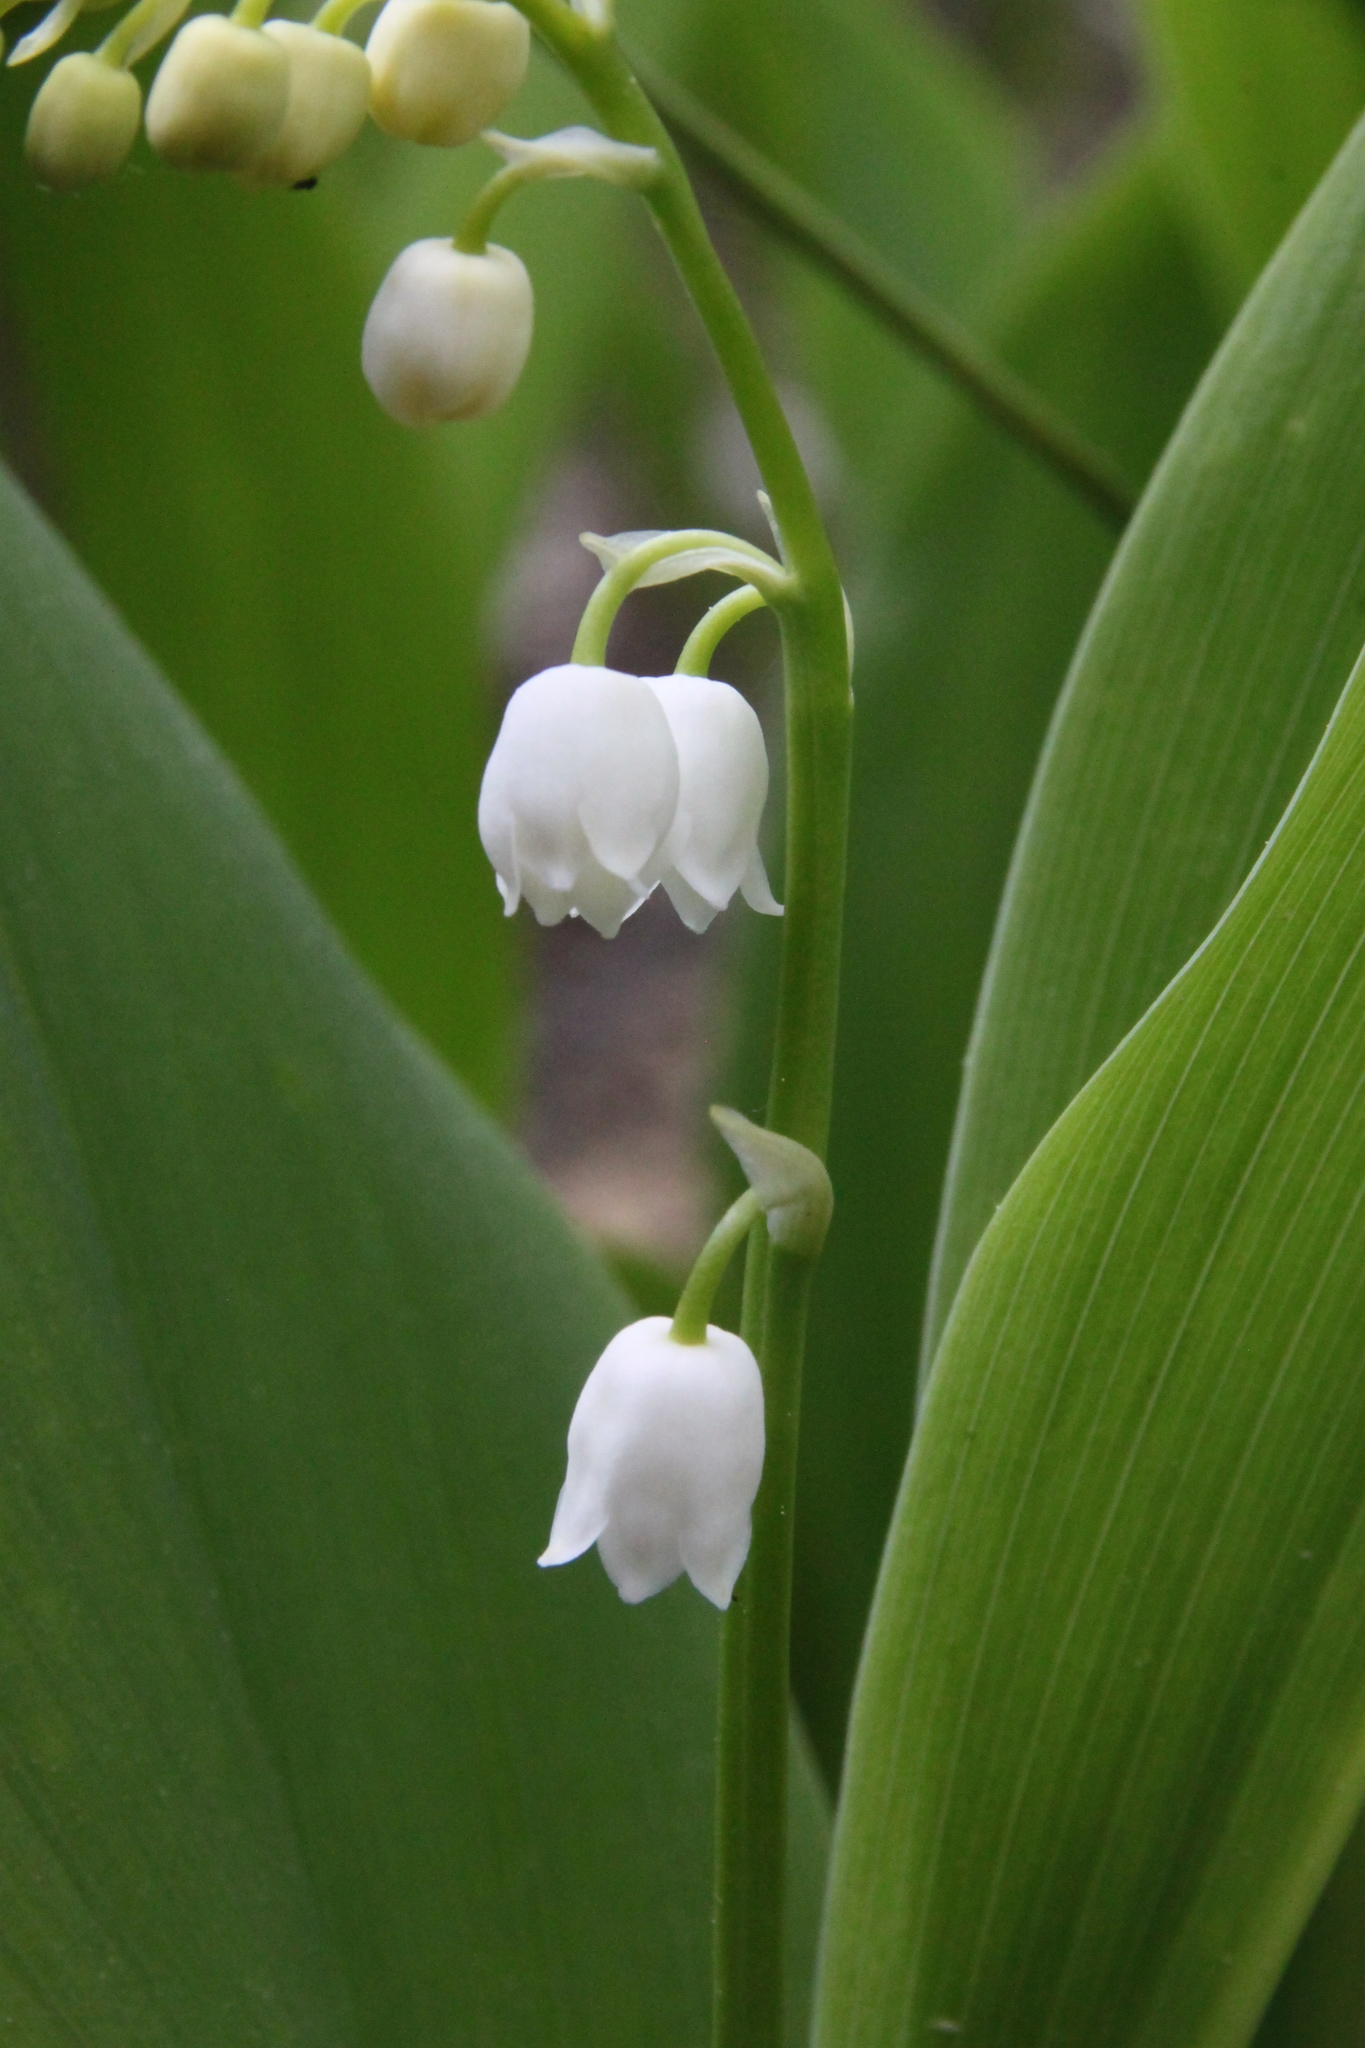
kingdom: Plantae
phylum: Tracheophyta
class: Liliopsida
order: Asparagales
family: Asparagaceae
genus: Convallaria
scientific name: Convallaria majalis
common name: Lily-of-the-valley
